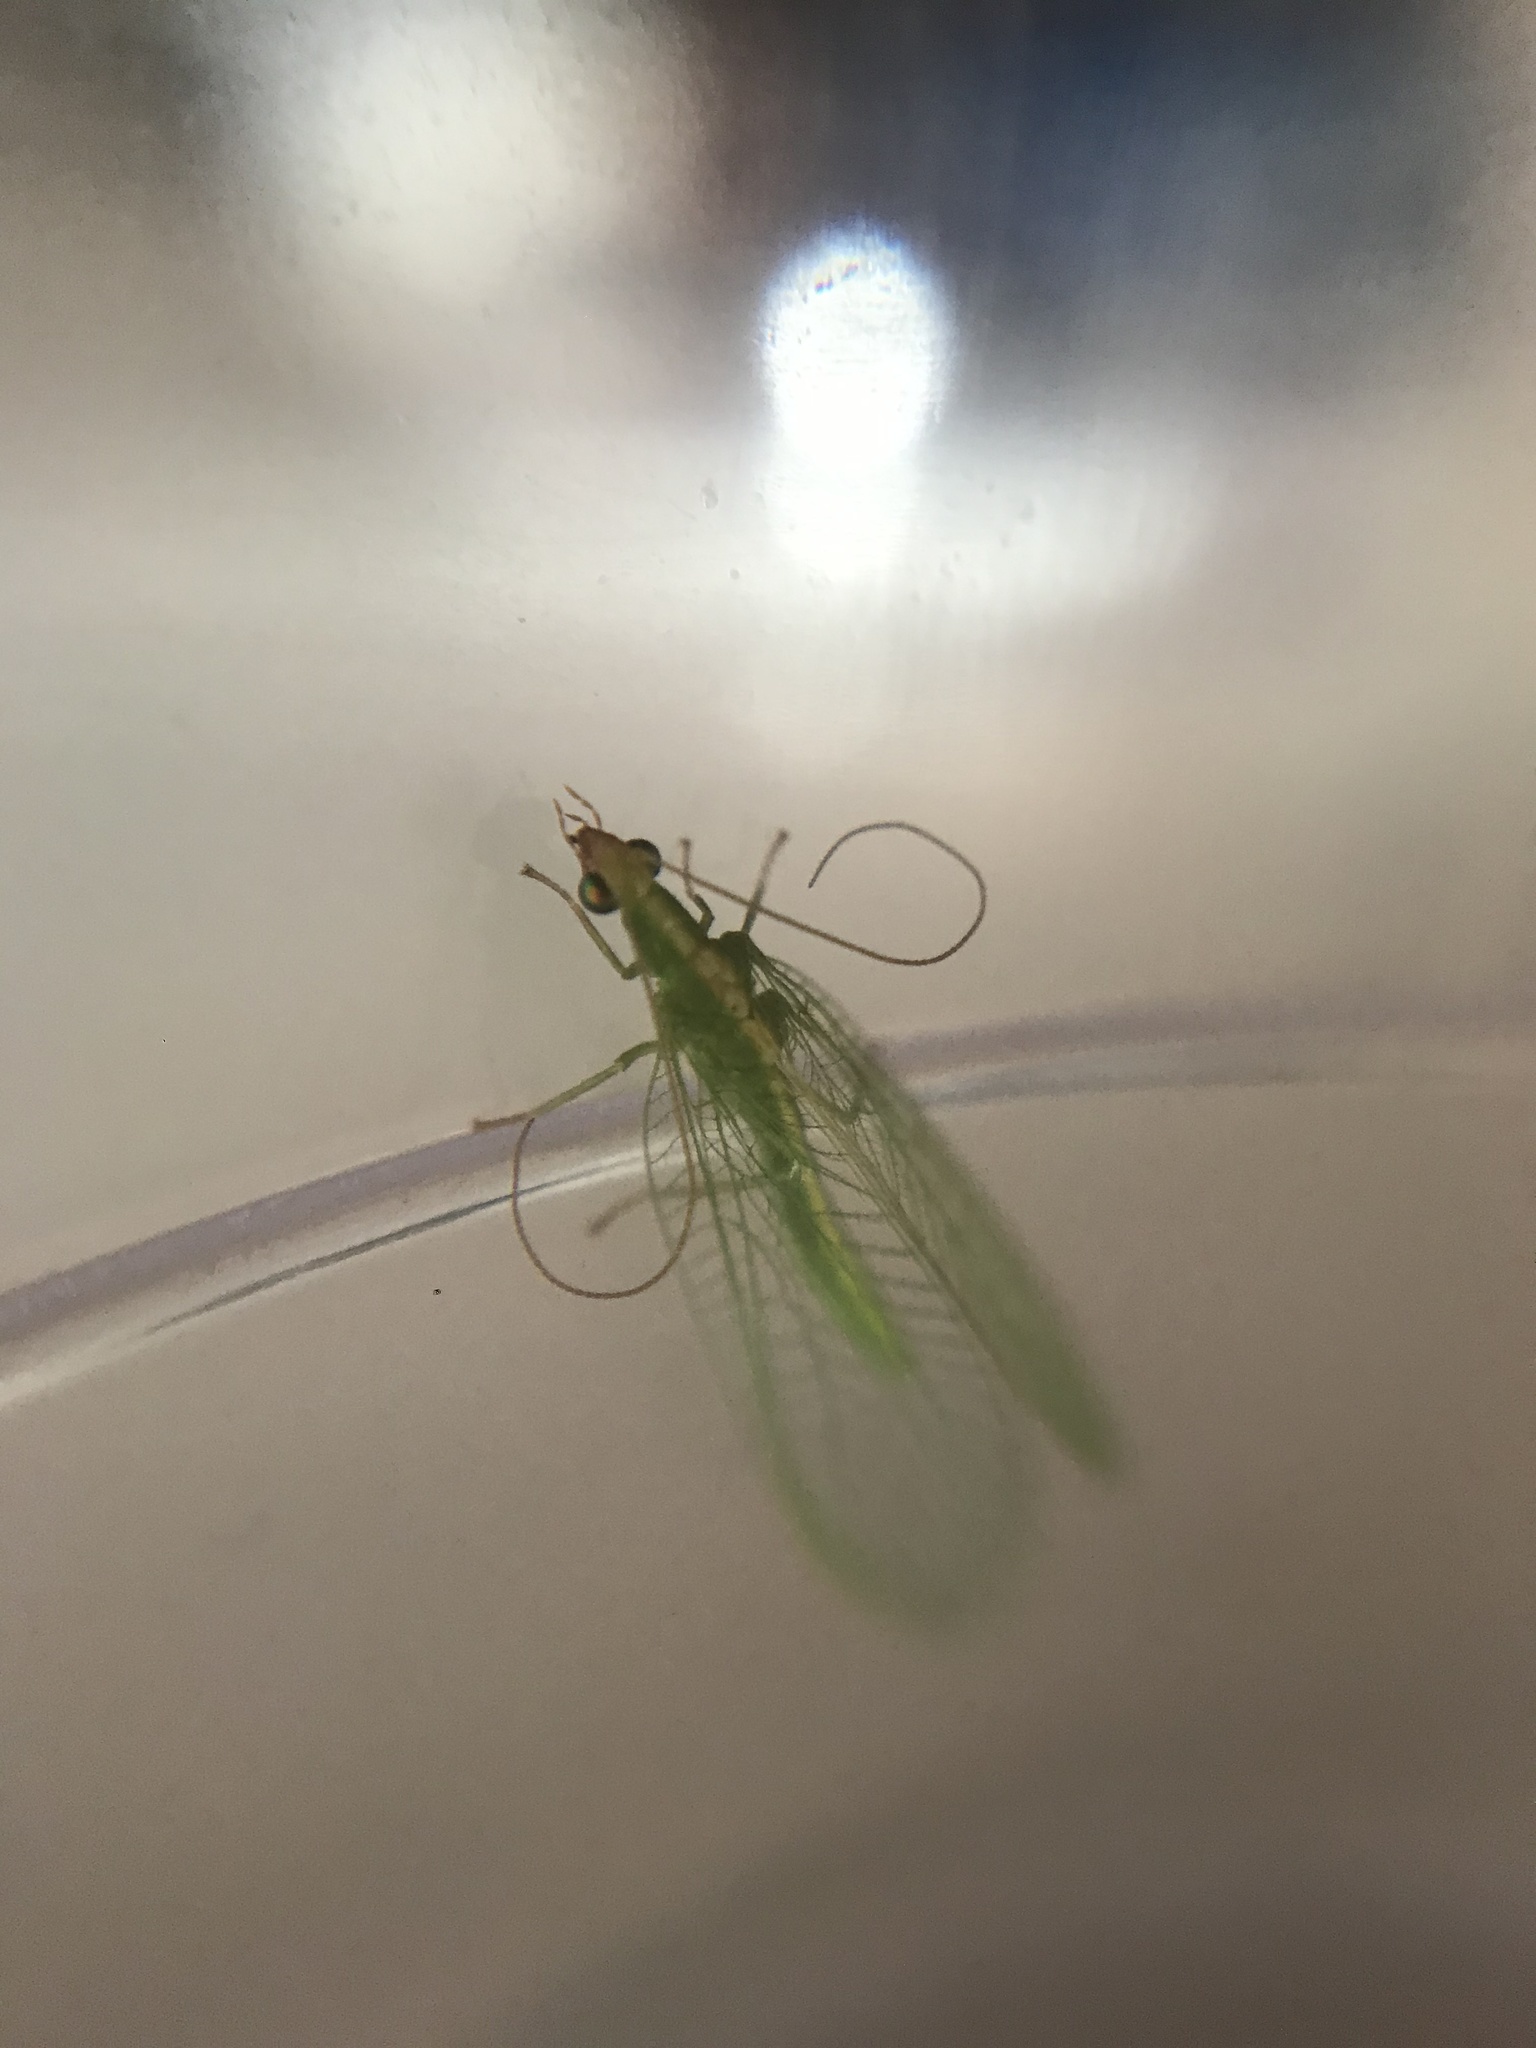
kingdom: Animalia
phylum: Arthropoda
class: Insecta
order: Neuroptera
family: Chrysopidae
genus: Chrysoperla
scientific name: Chrysoperla
